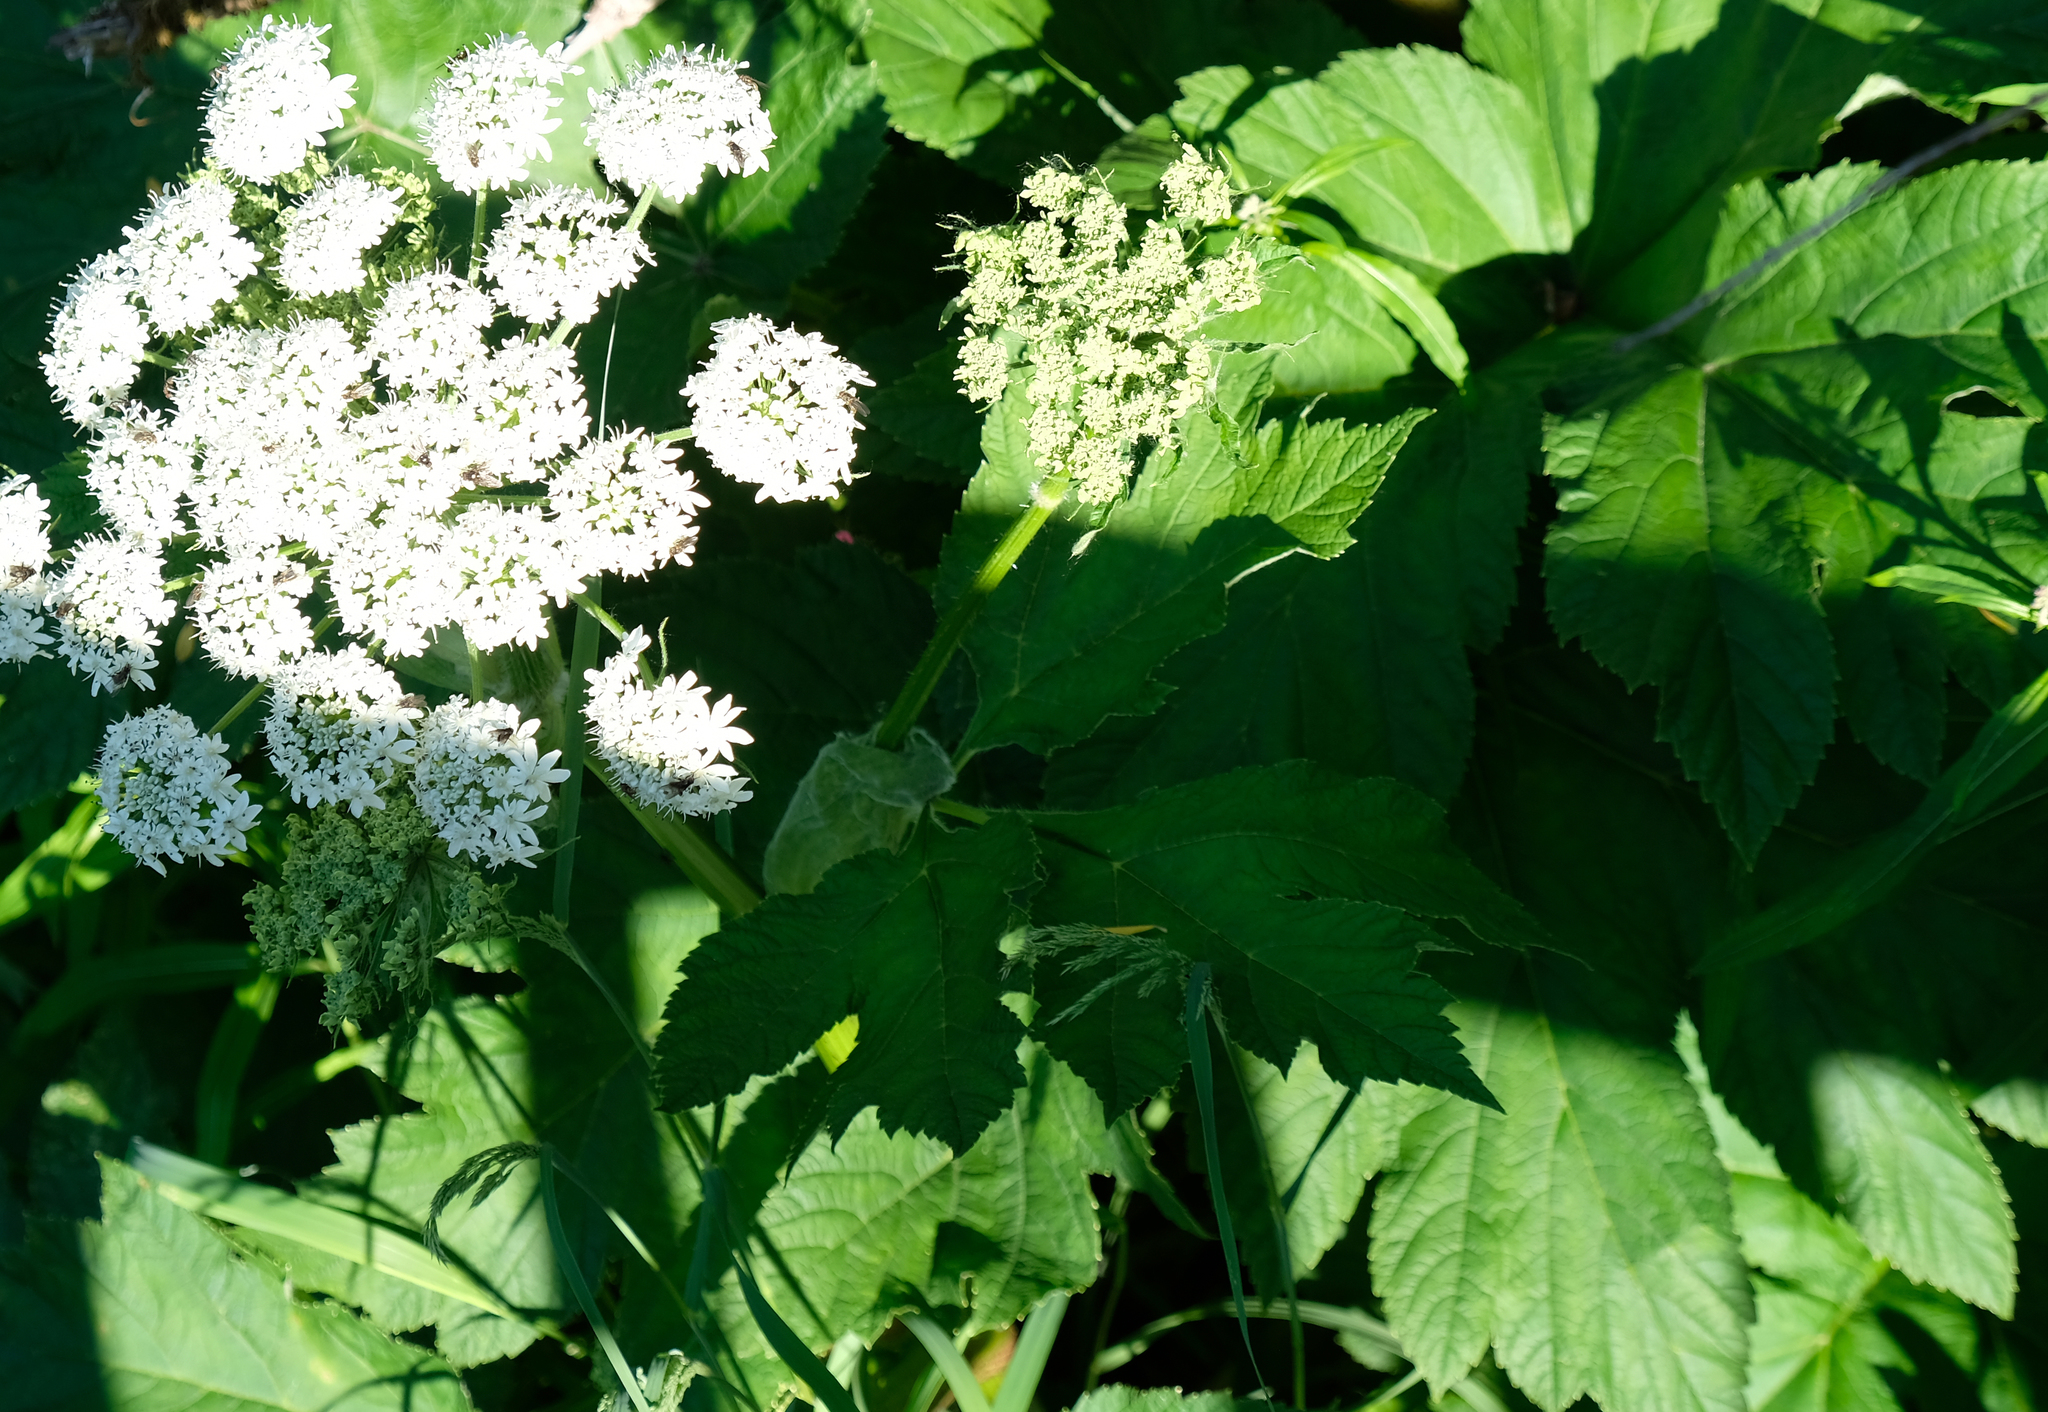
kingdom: Plantae
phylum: Tracheophyta
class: Magnoliopsida
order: Apiales
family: Apiaceae
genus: Heracleum
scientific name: Heracleum maximum
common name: American cow parsnip
